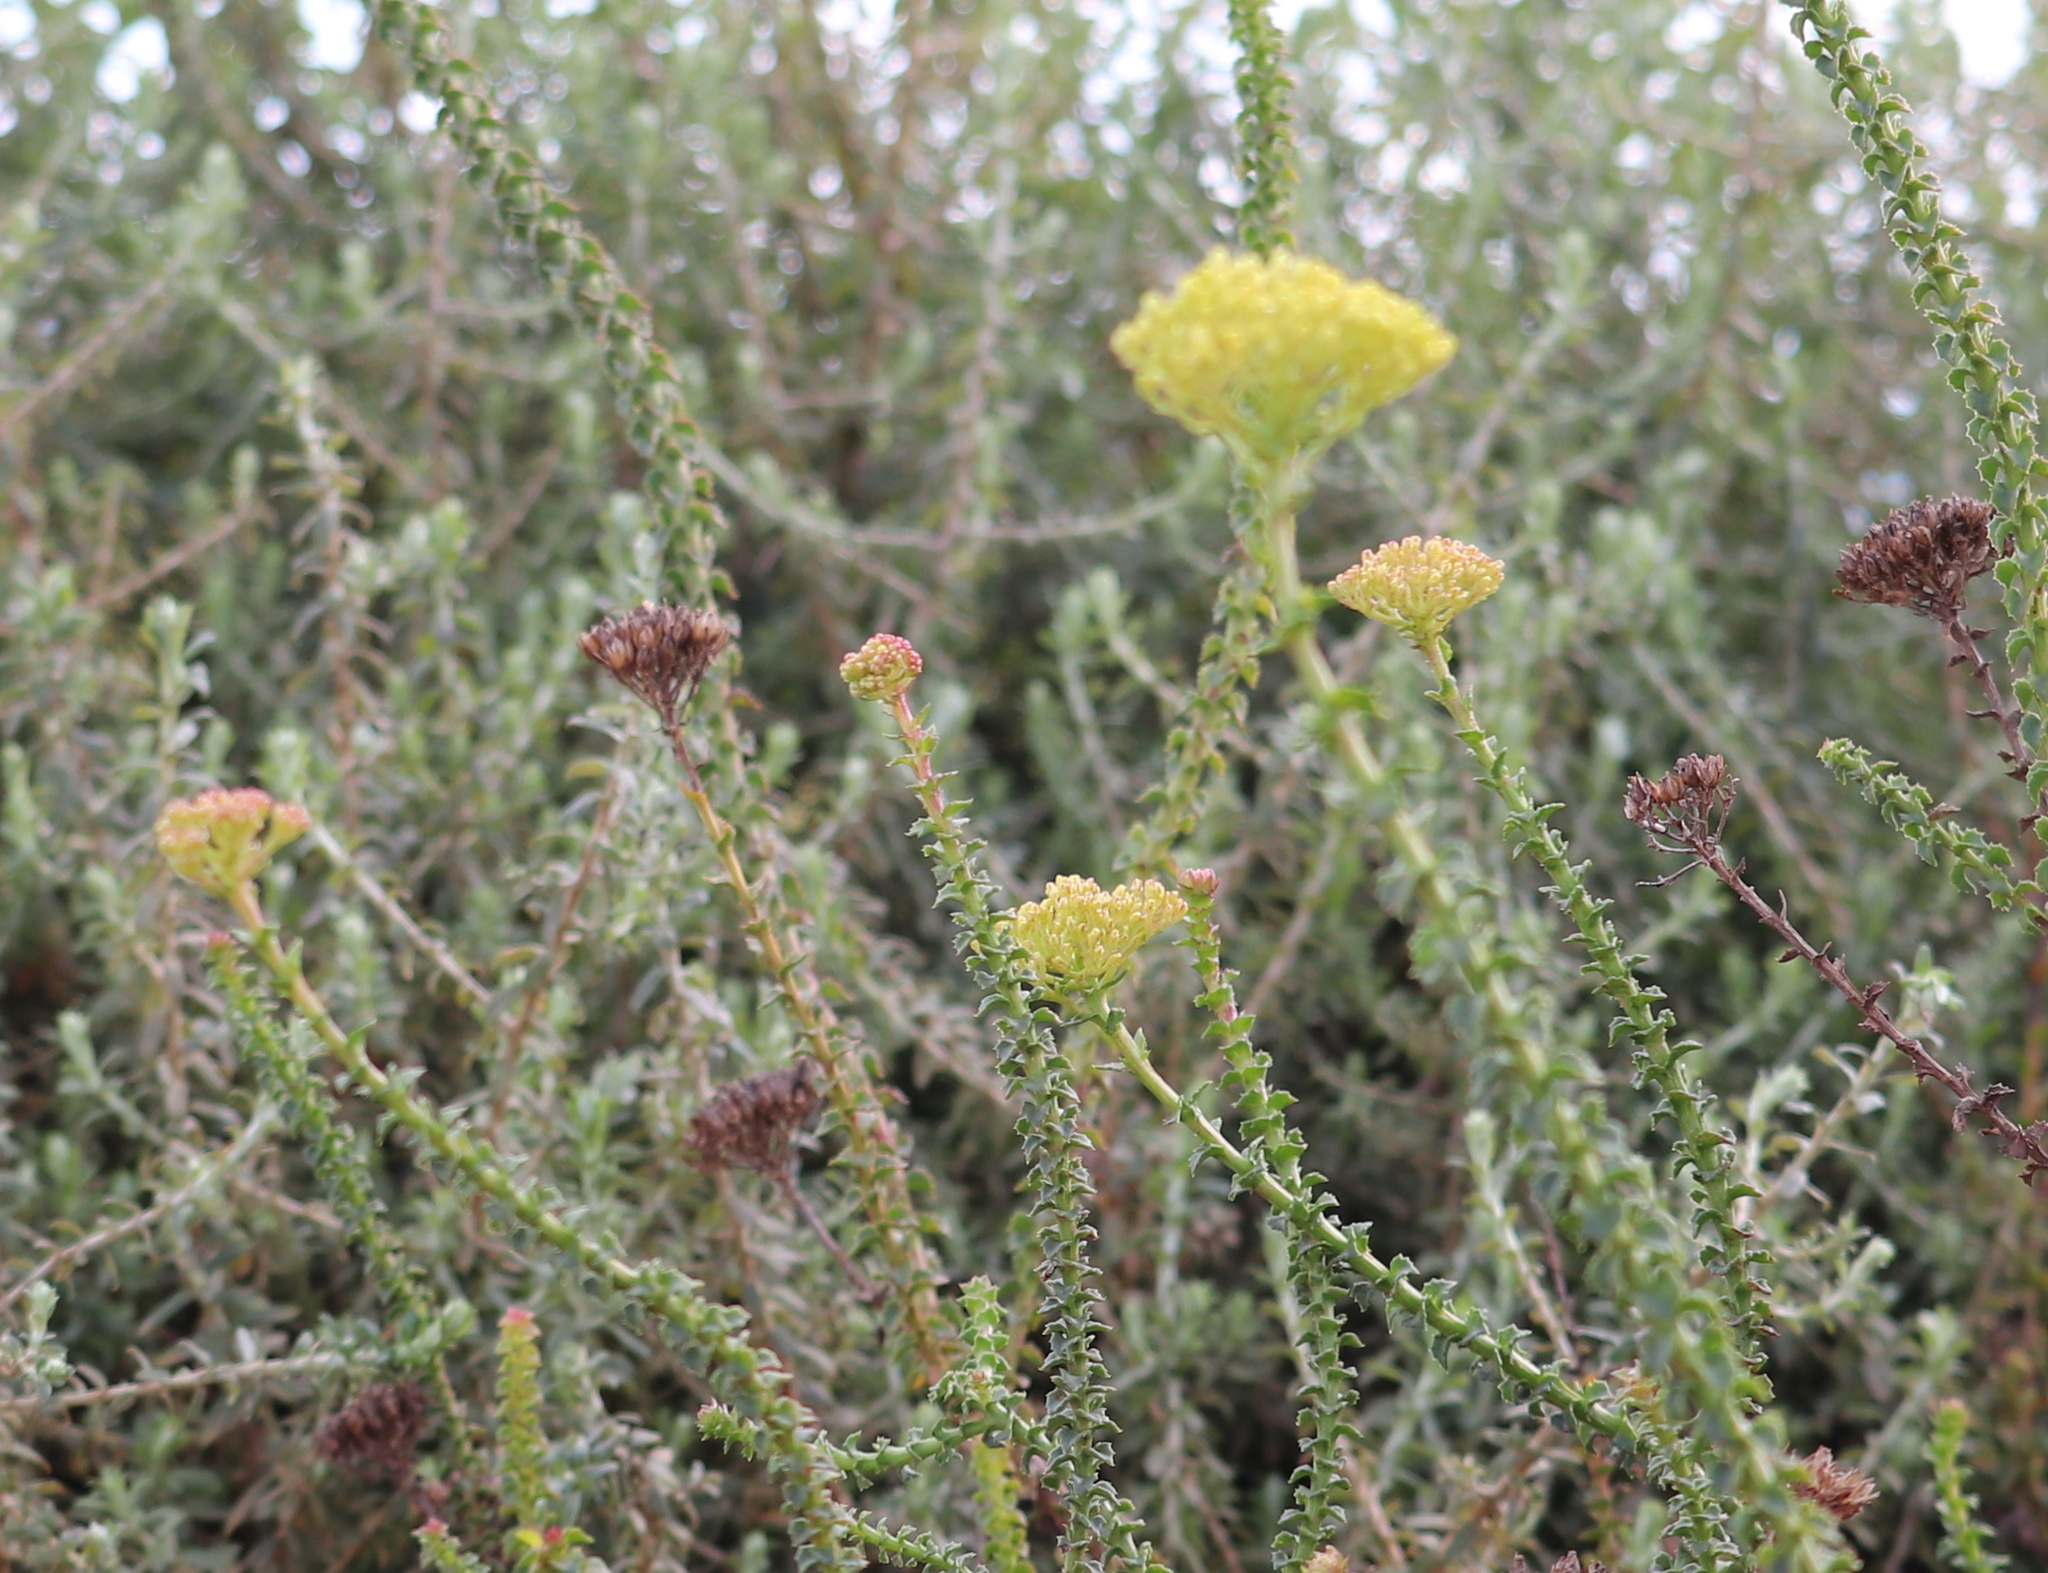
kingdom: Plantae
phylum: Tracheophyta
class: Magnoliopsida
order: Asterales
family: Asteraceae
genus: Athanasia
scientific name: Athanasia dentata
